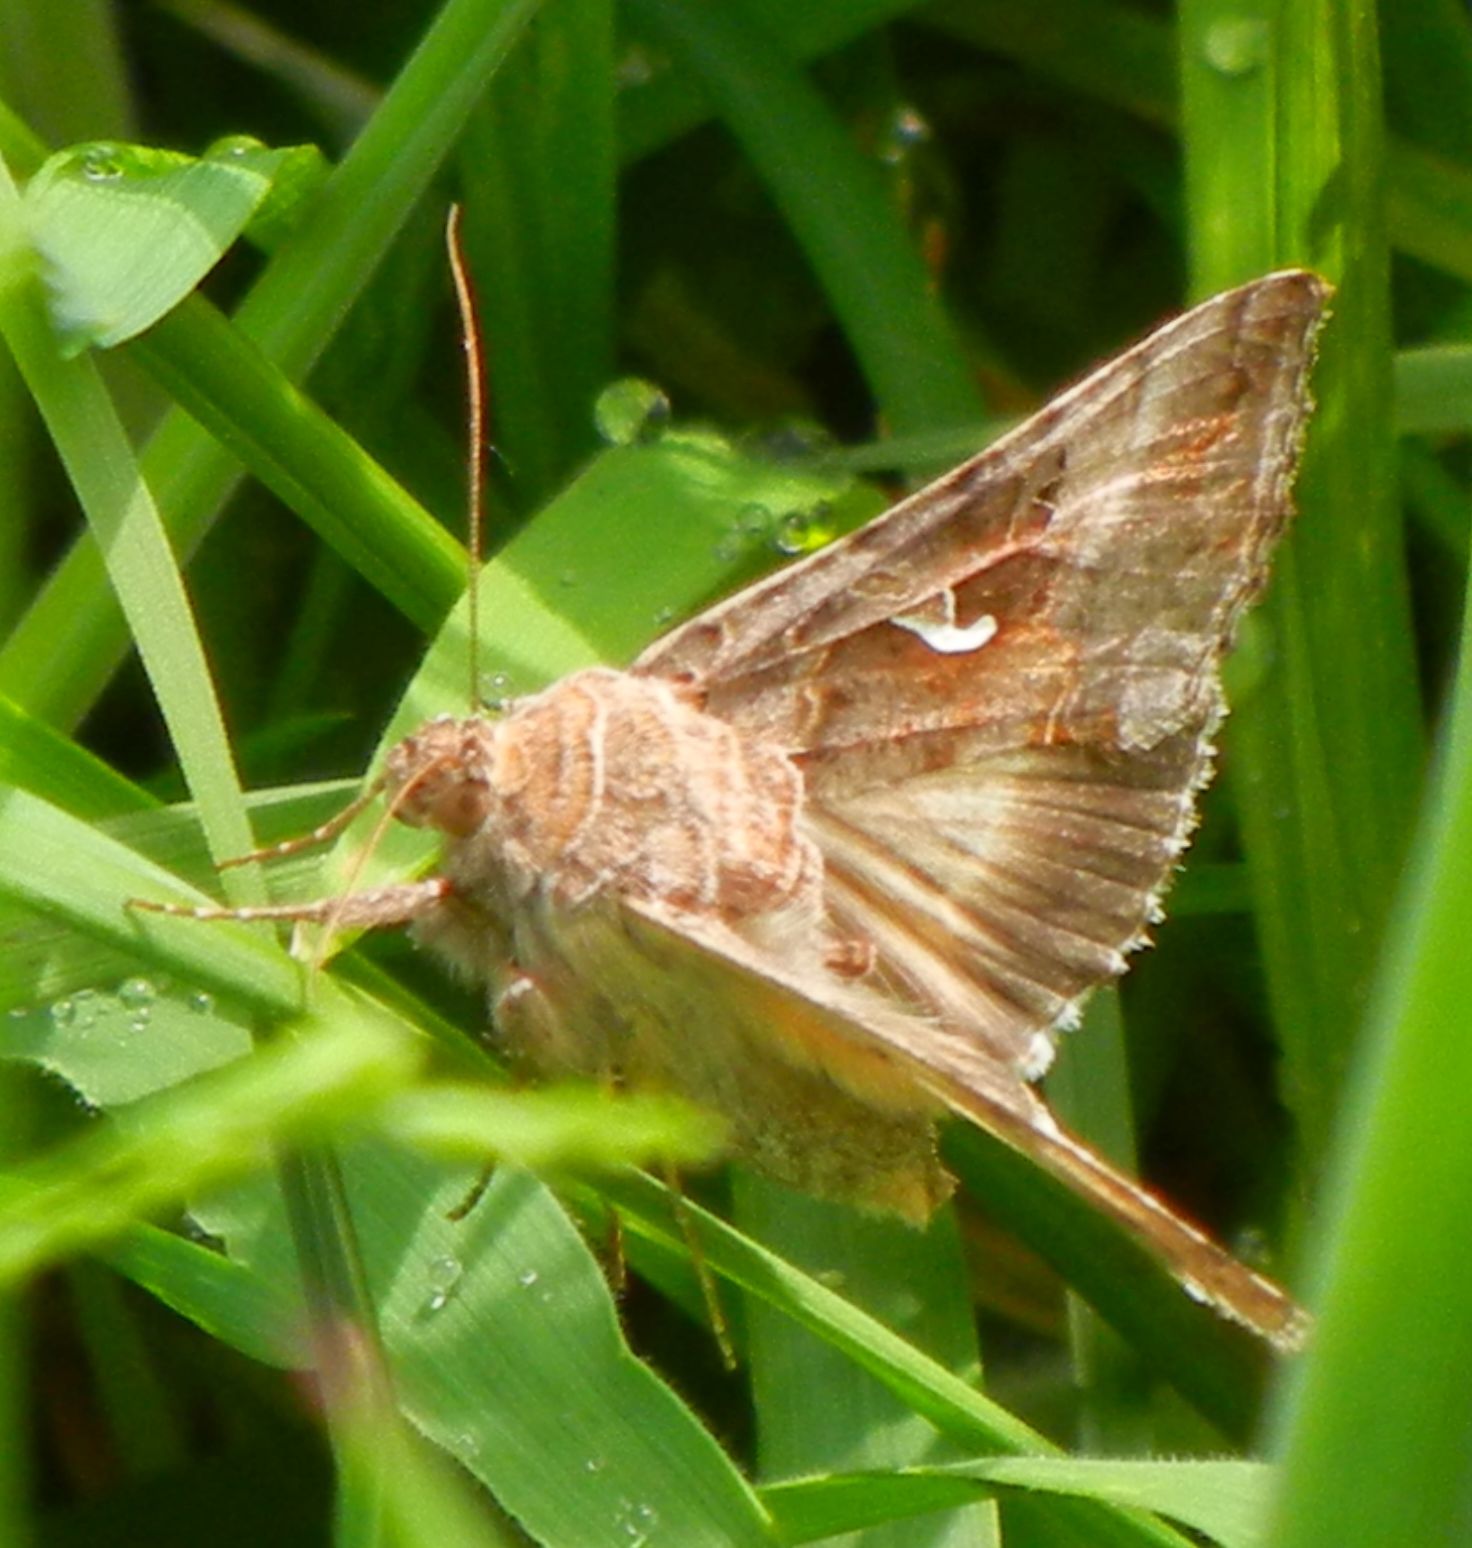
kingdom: Animalia
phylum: Arthropoda
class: Insecta
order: Lepidoptera
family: Noctuidae
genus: Autographa
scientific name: Autographa gamma
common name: Silver y
